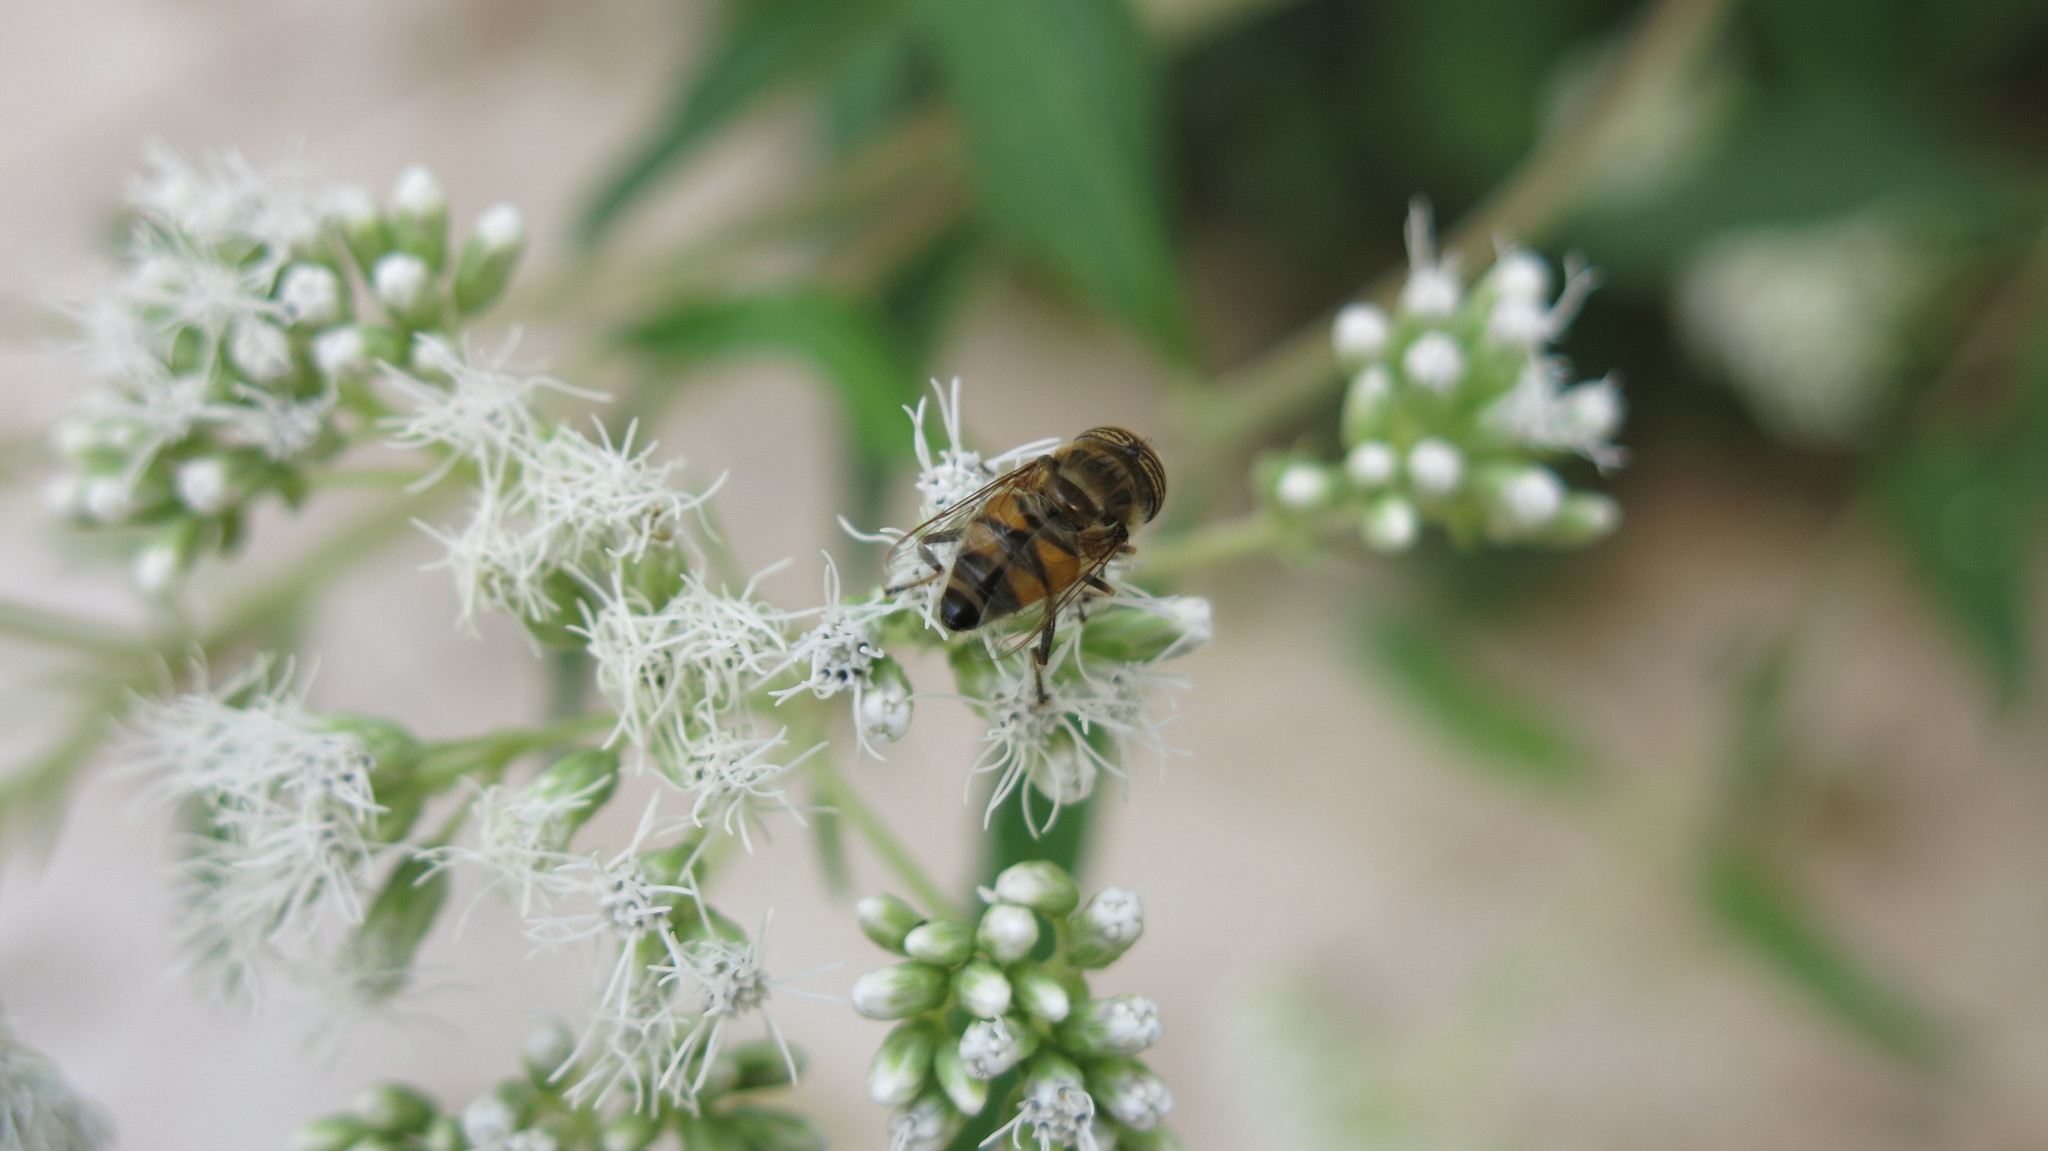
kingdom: Animalia
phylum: Arthropoda
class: Insecta
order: Diptera
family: Syrphidae
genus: Eristalinus
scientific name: Eristalinus taeniops
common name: Syrphid fly
